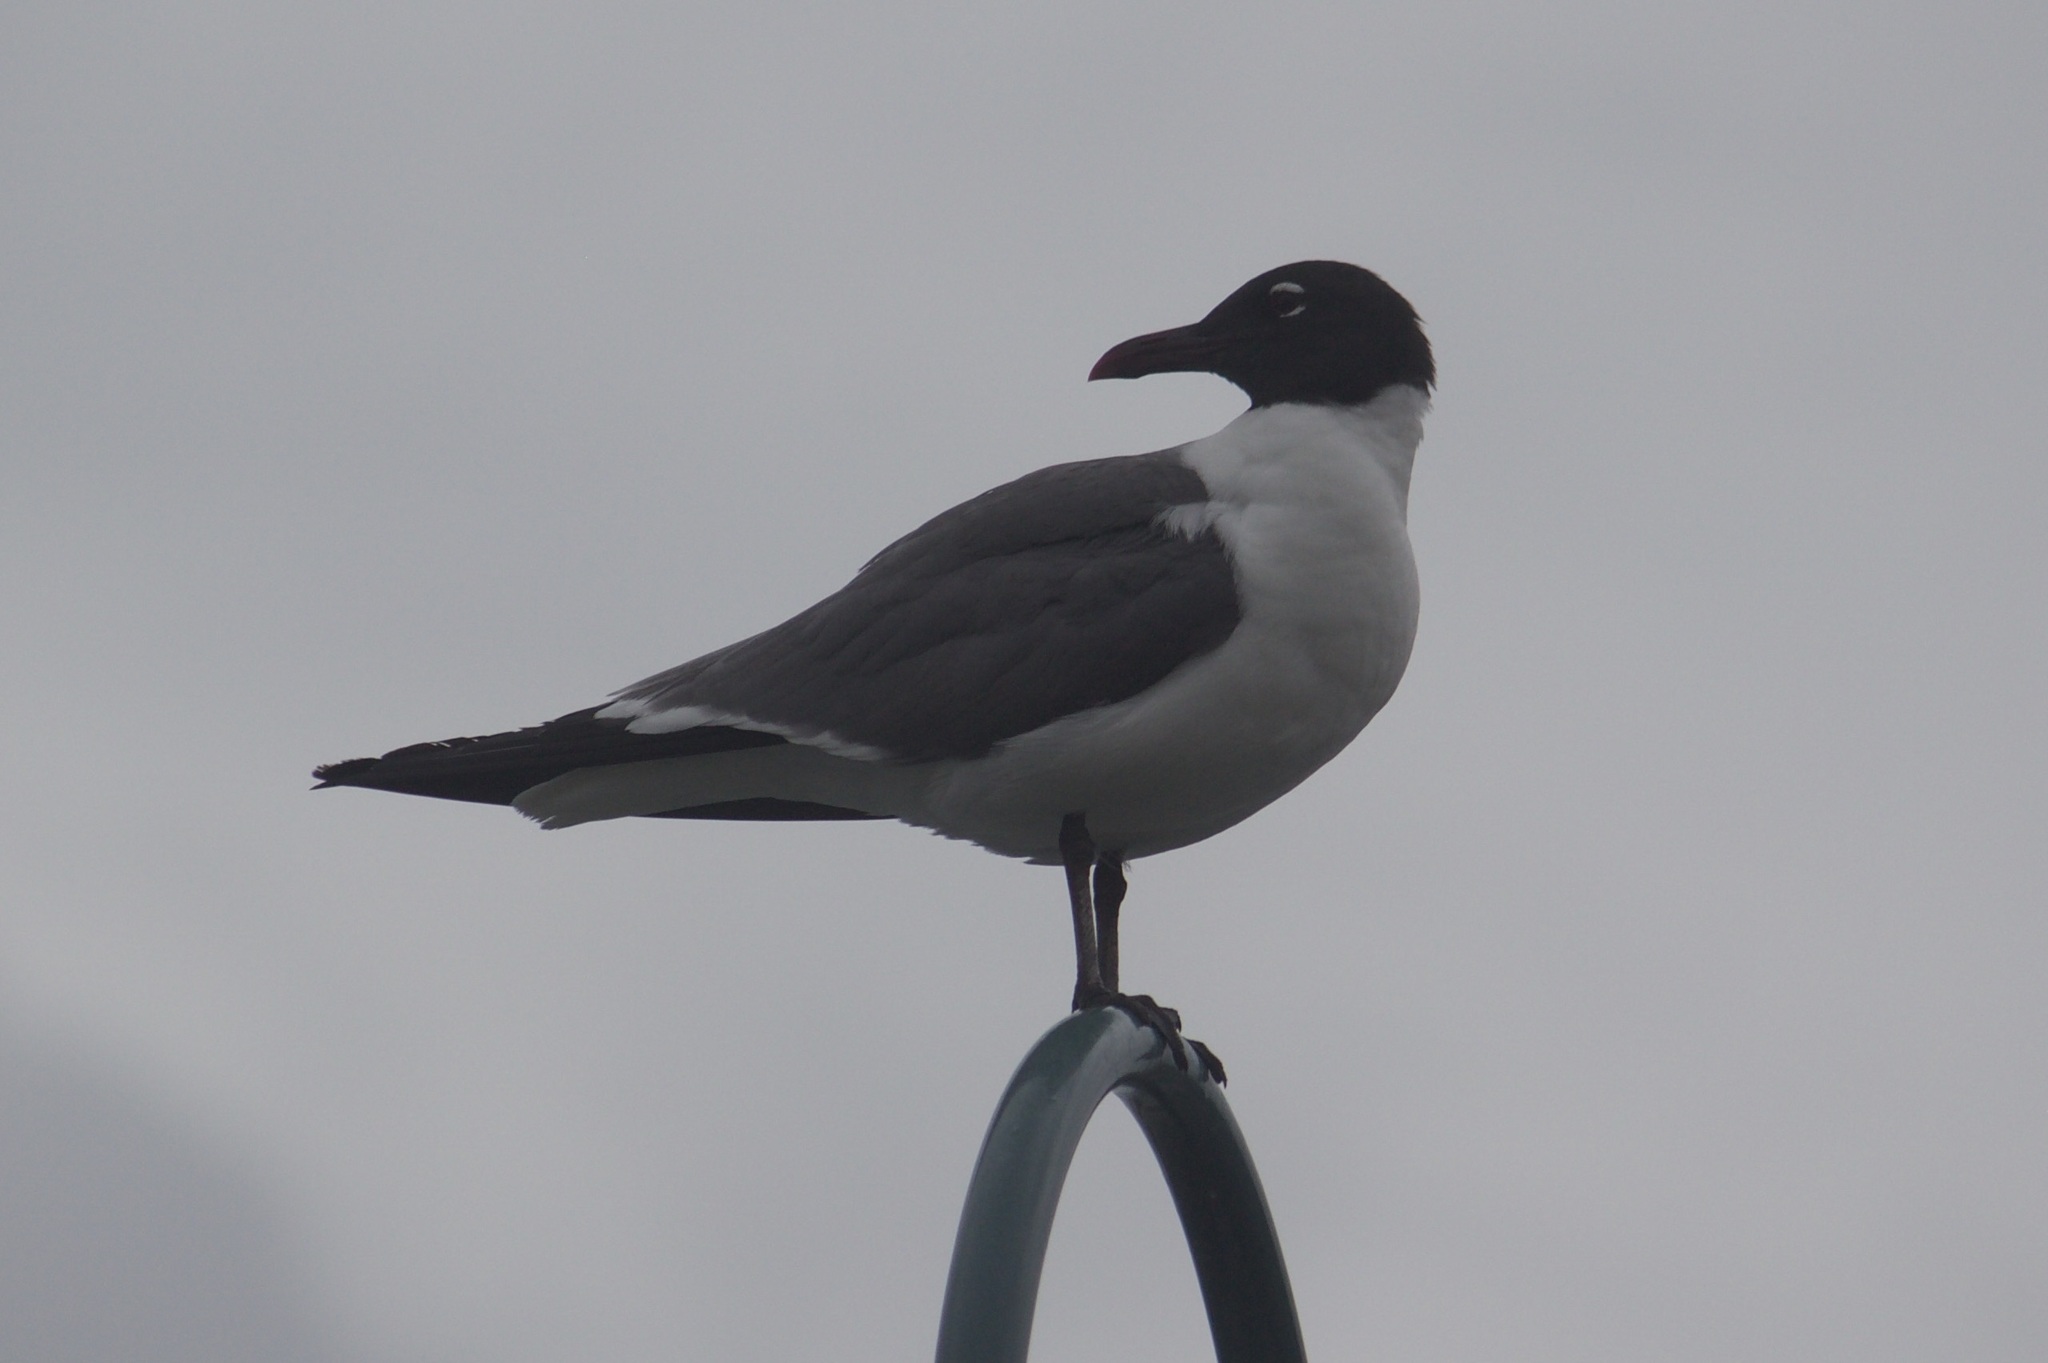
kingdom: Animalia
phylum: Chordata
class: Aves
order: Charadriiformes
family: Laridae
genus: Leucophaeus
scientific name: Leucophaeus atricilla
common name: Laughing gull
